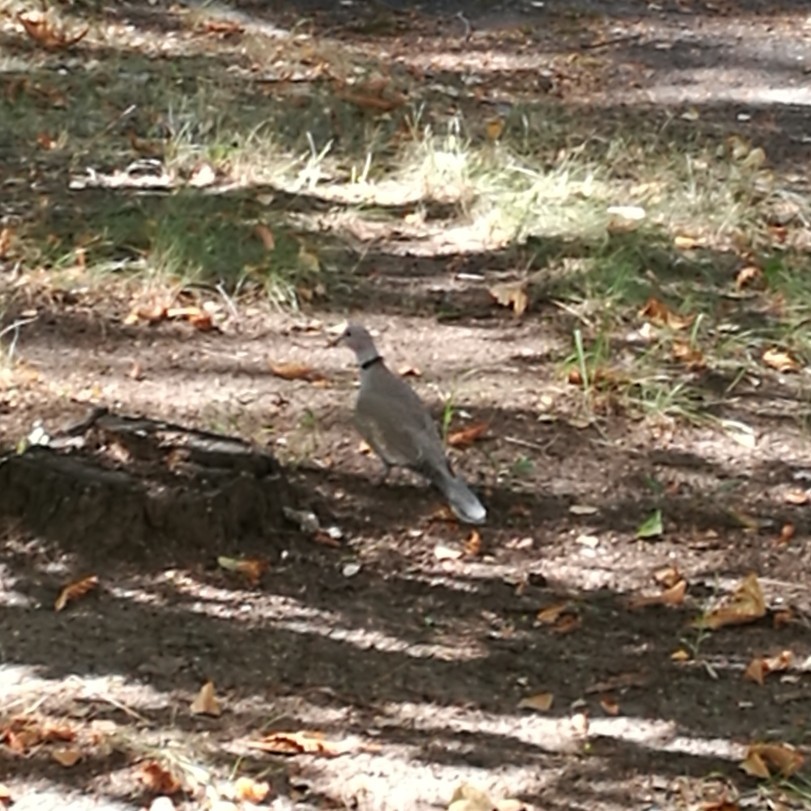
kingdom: Animalia
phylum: Chordata
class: Aves
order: Columbiformes
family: Columbidae
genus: Streptopelia
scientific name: Streptopelia decaocto
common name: Eurasian collared dove
